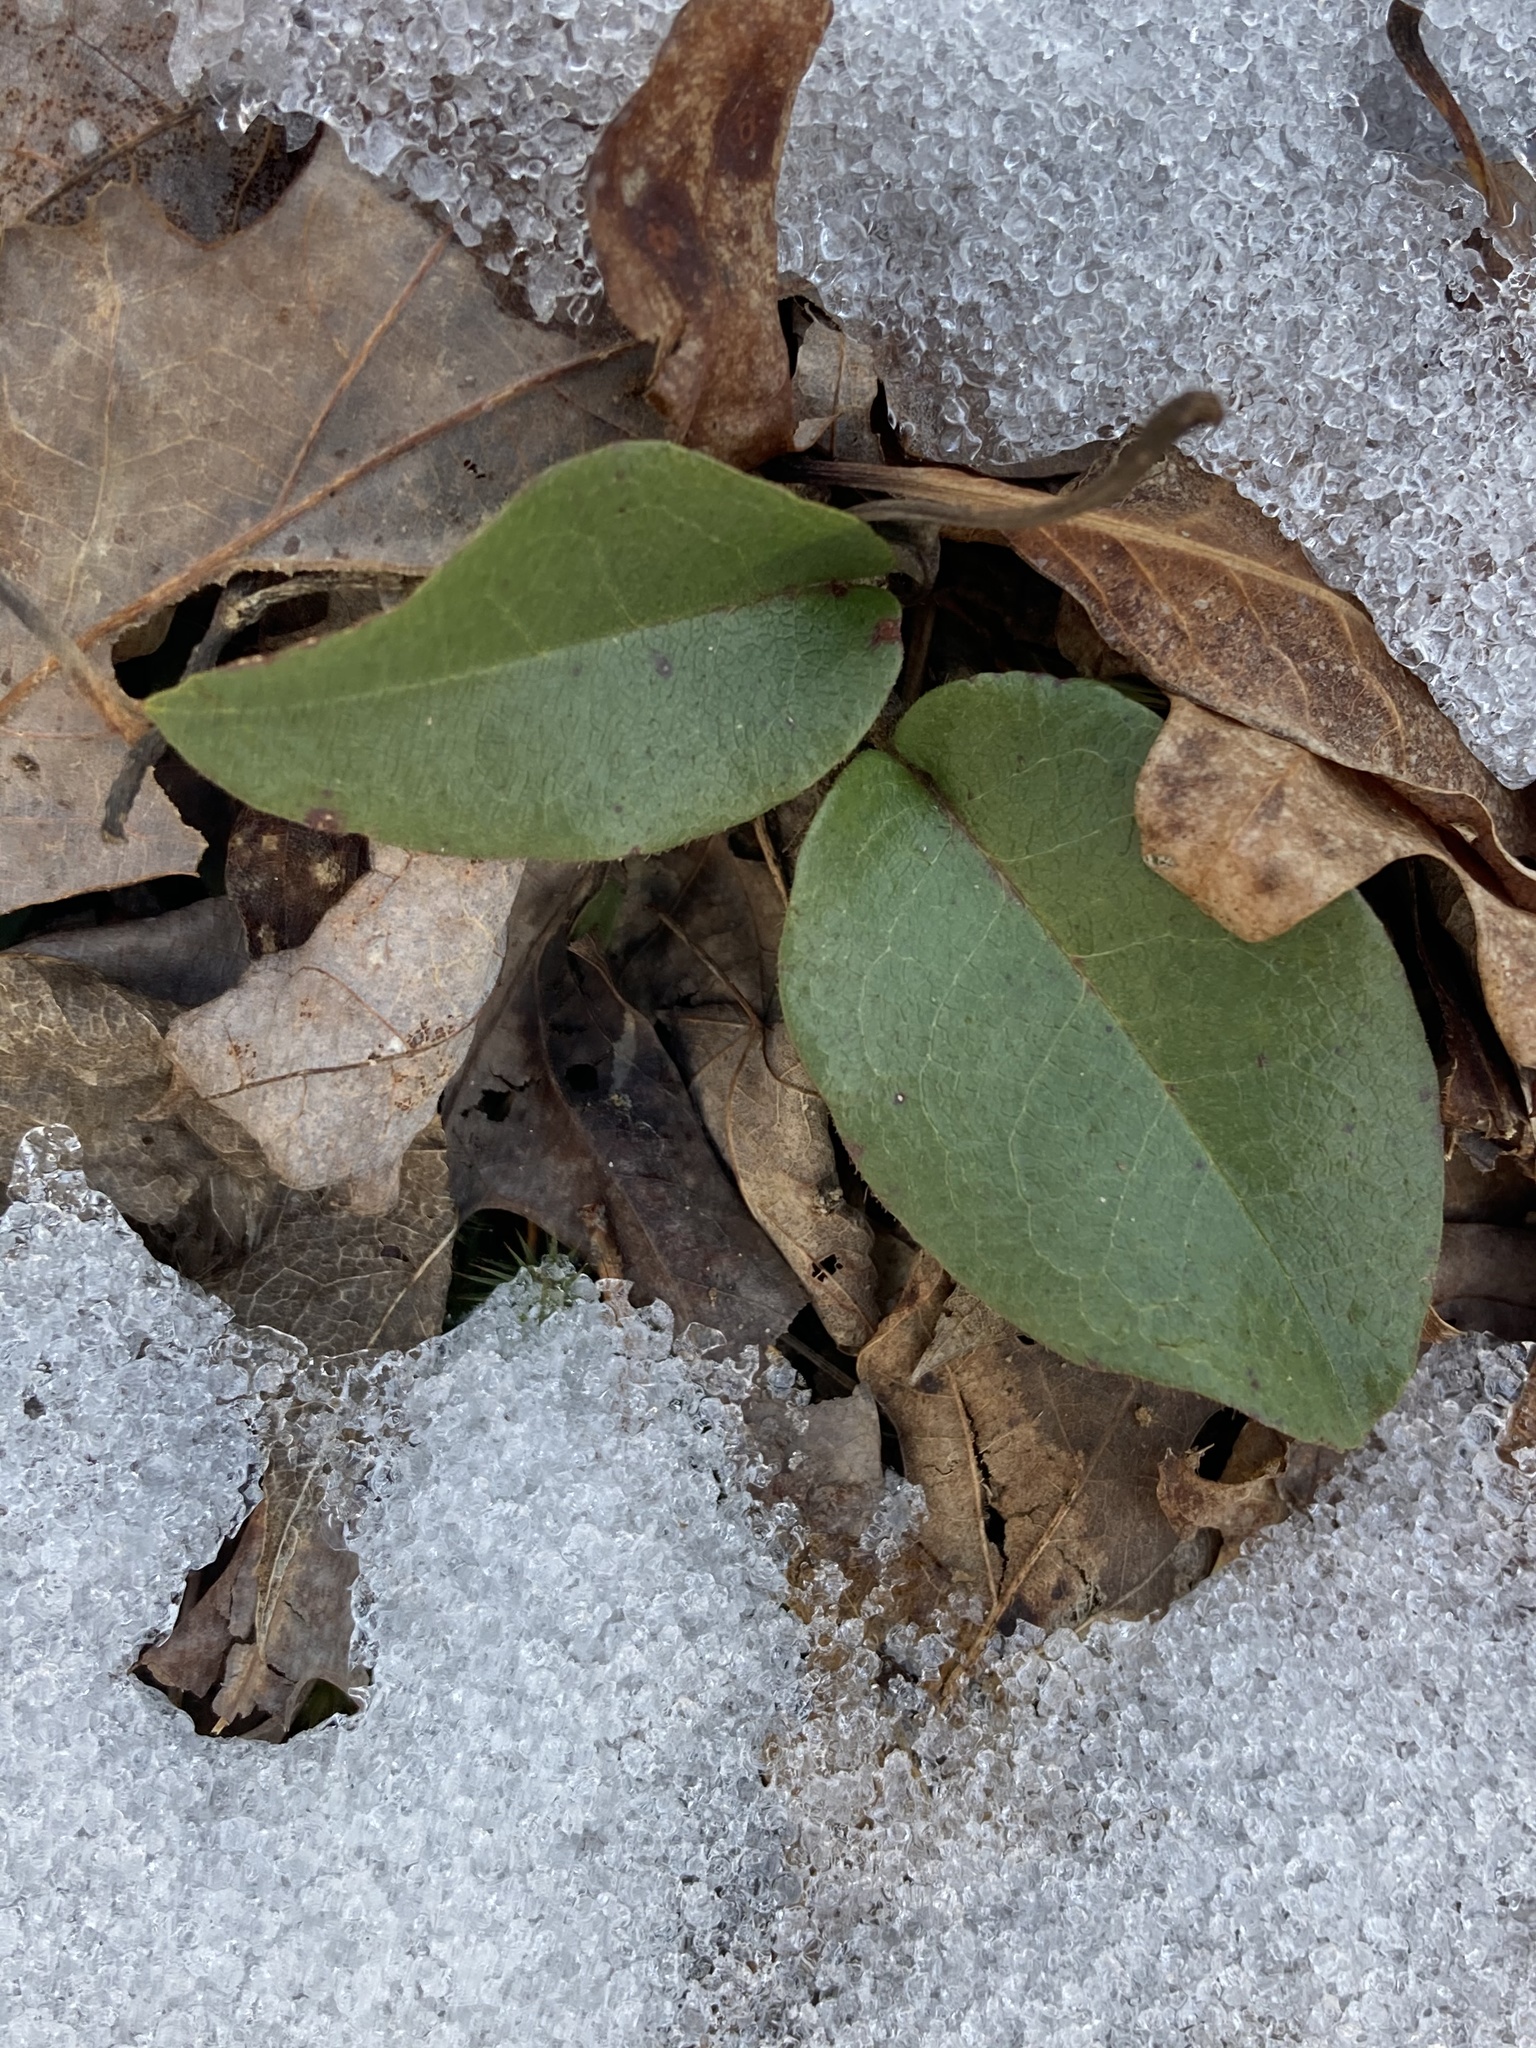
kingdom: Plantae
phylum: Tracheophyta
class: Magnoliopsida
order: Ericales
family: Ericaceae
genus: Epigaea
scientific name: Epigaea repens
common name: Gravelroot
